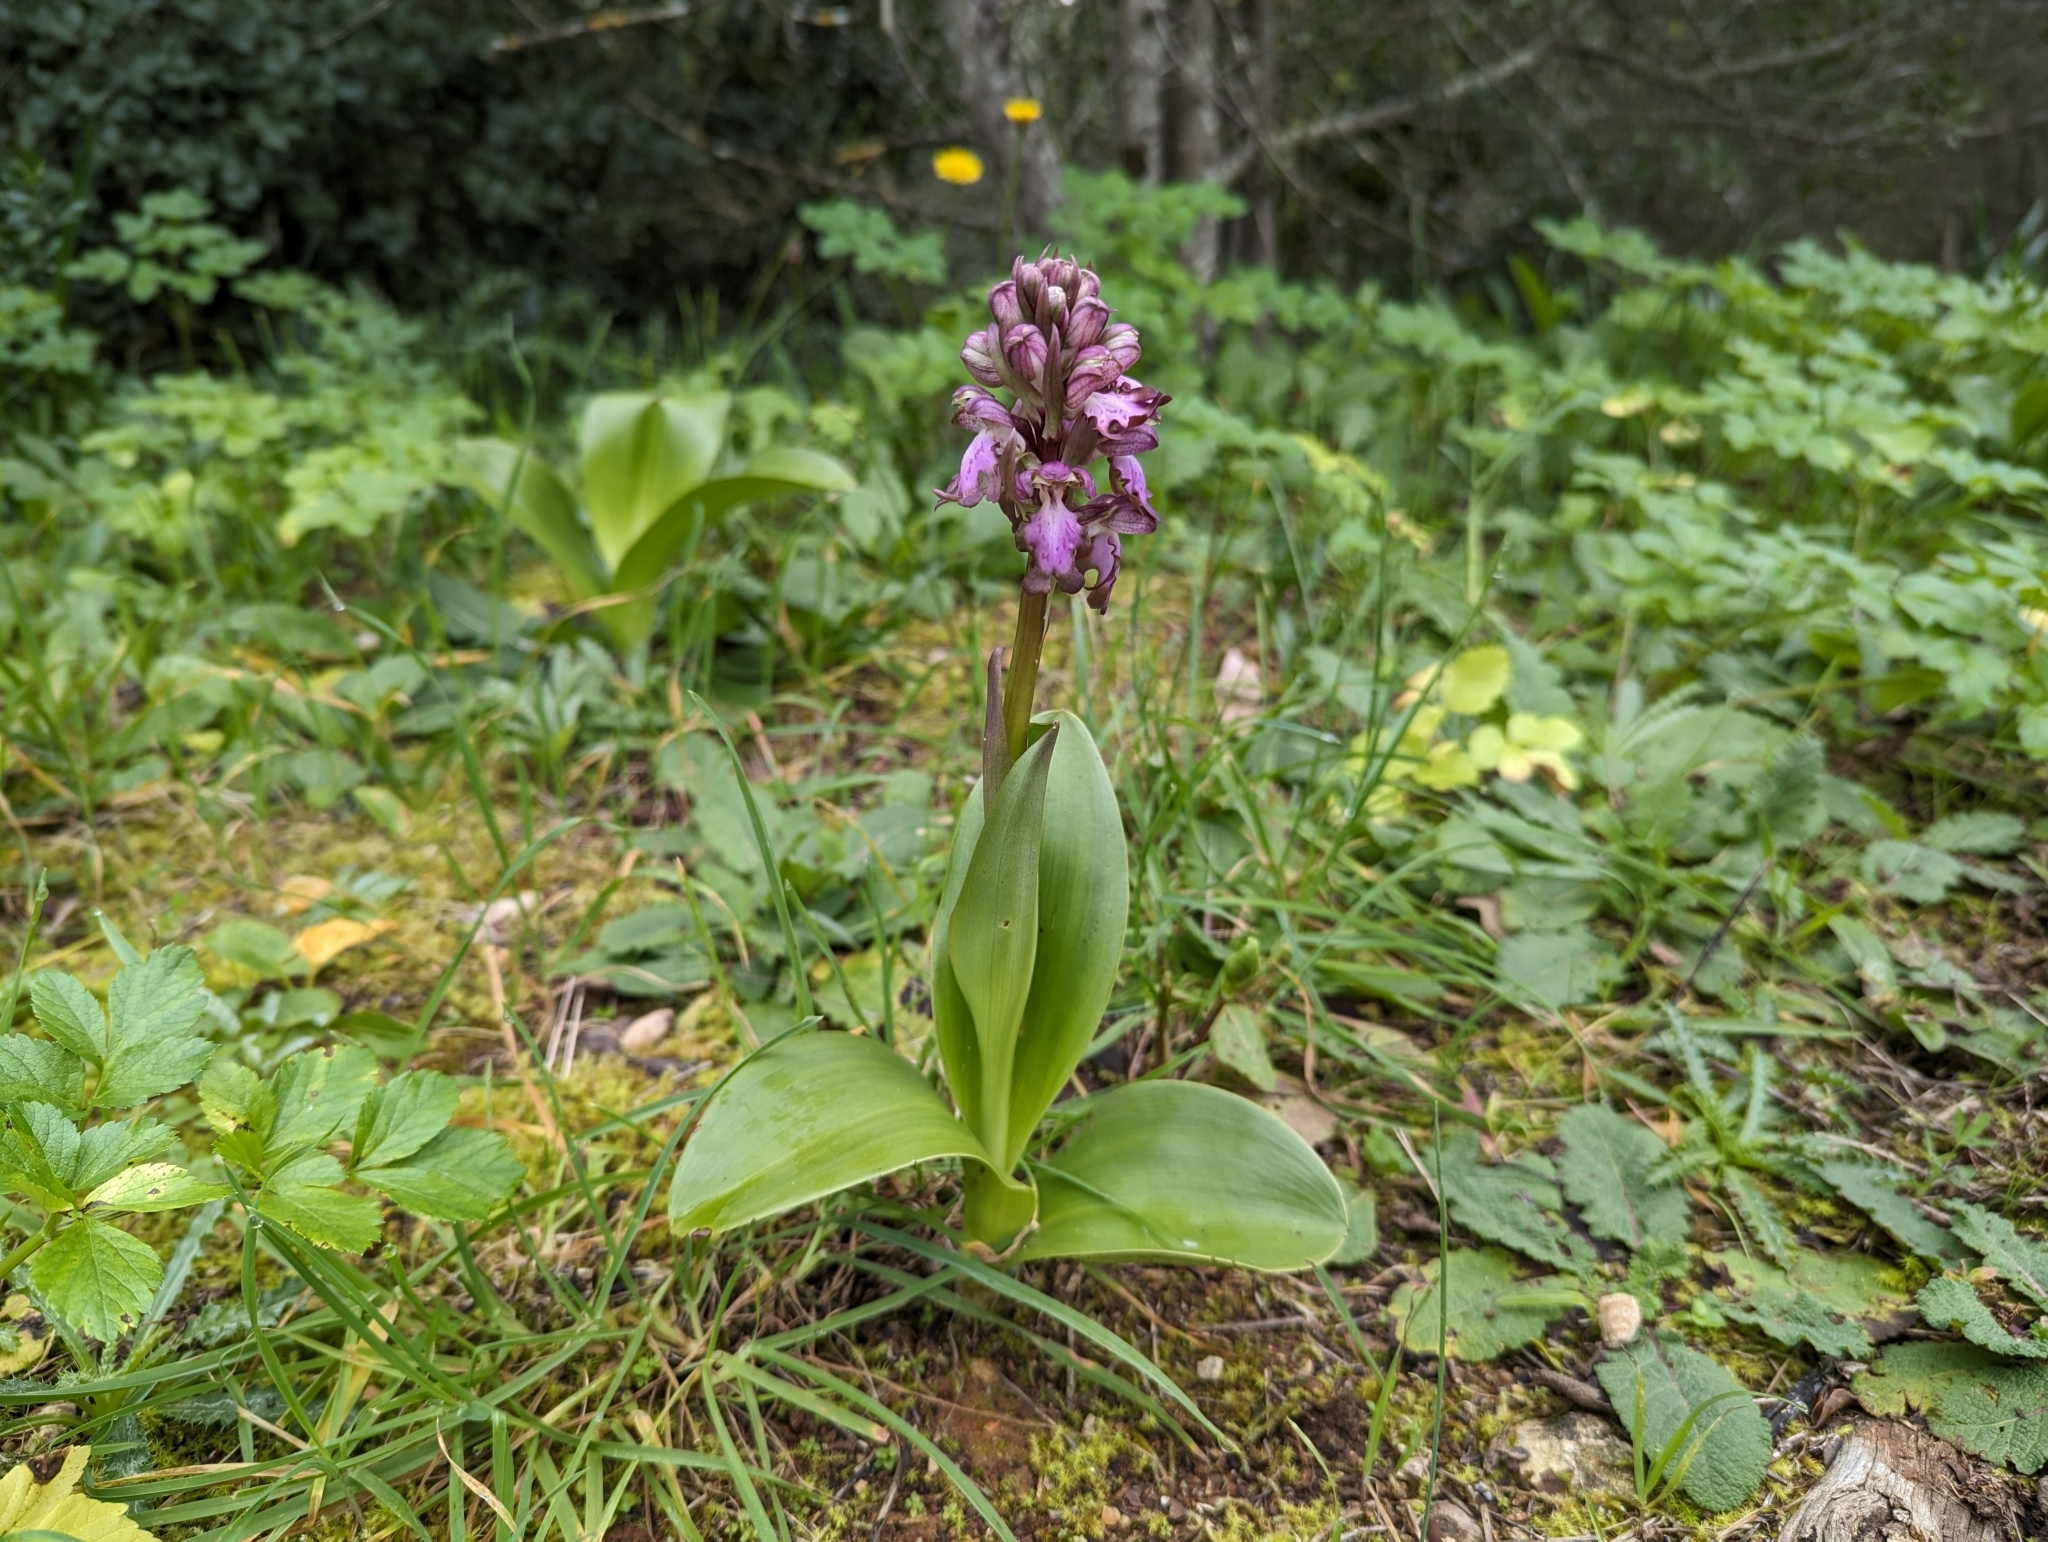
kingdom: Plantae
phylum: Tracheophyta
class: Liliopsida
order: Asparagales
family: Orchidaceae
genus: Himantoglossum
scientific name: Himantoglossum robertianum
